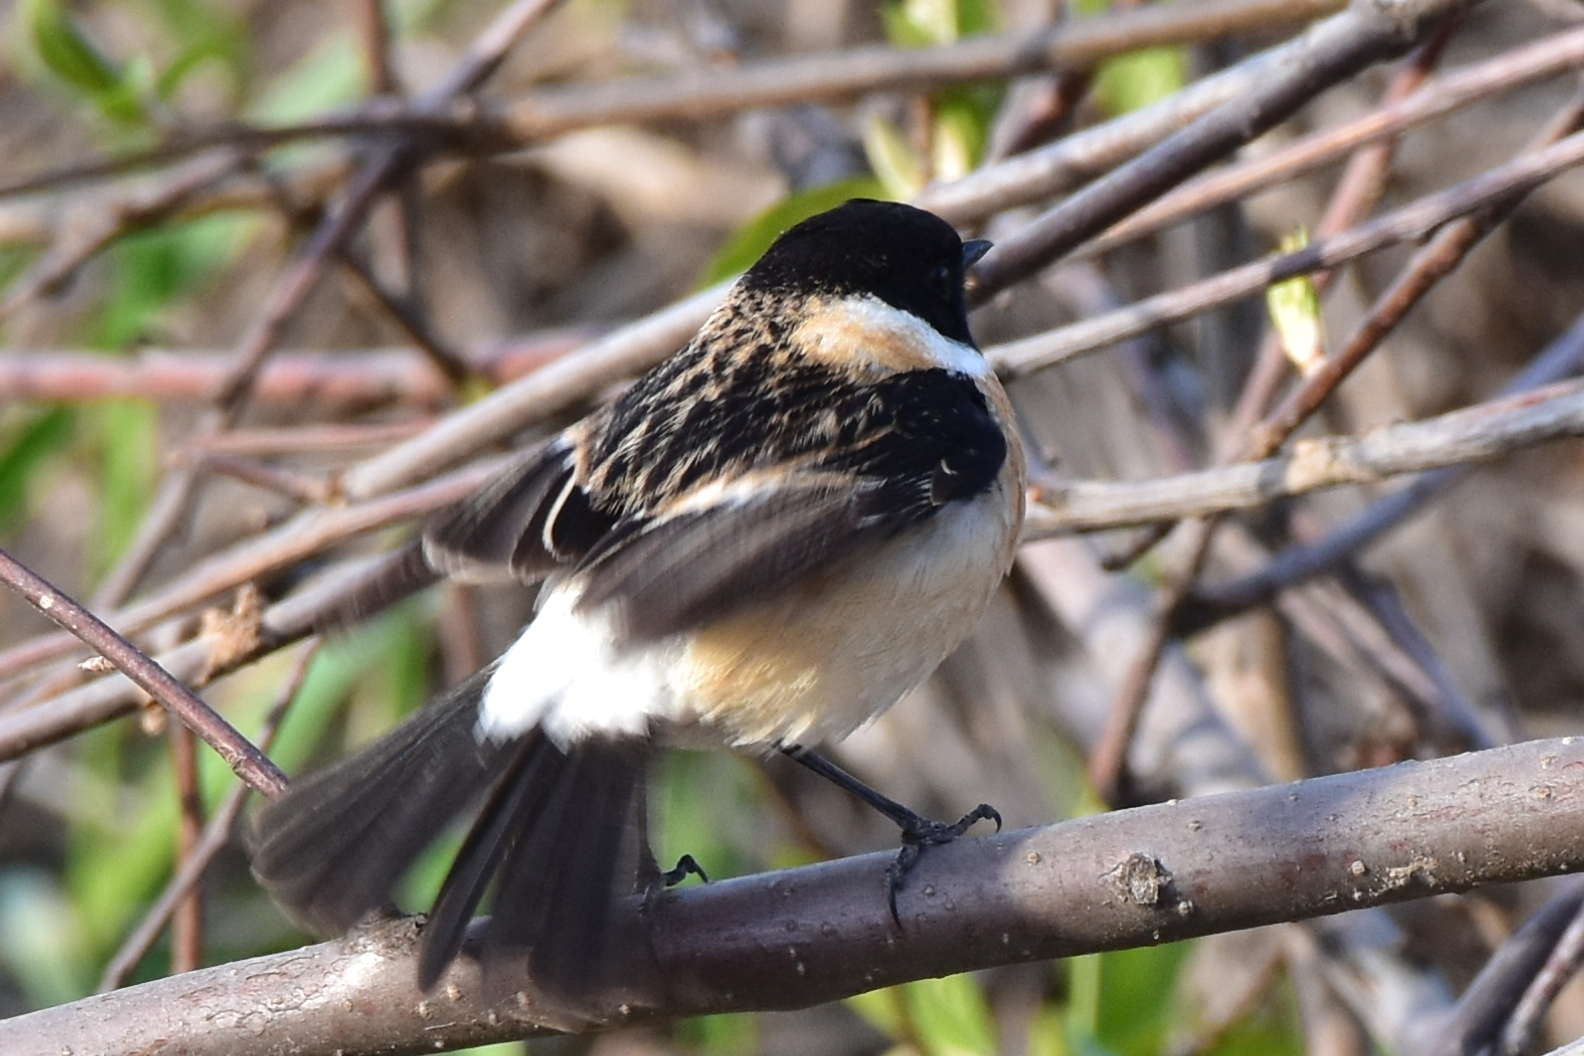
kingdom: Animalia
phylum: Chordata
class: Aves
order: Passeriformes
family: Muscicapidae
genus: Saxicola
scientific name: Saxicola maurus
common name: Siberian stonechat
